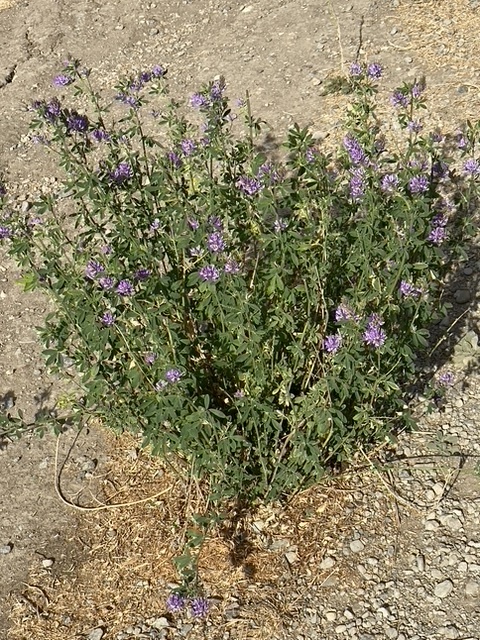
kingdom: Plantae
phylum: Tracheophyta
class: Magnoliopsida
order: Fabales
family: Fabaceae
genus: Medicago
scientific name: Medicago sativa
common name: Alfalfa
